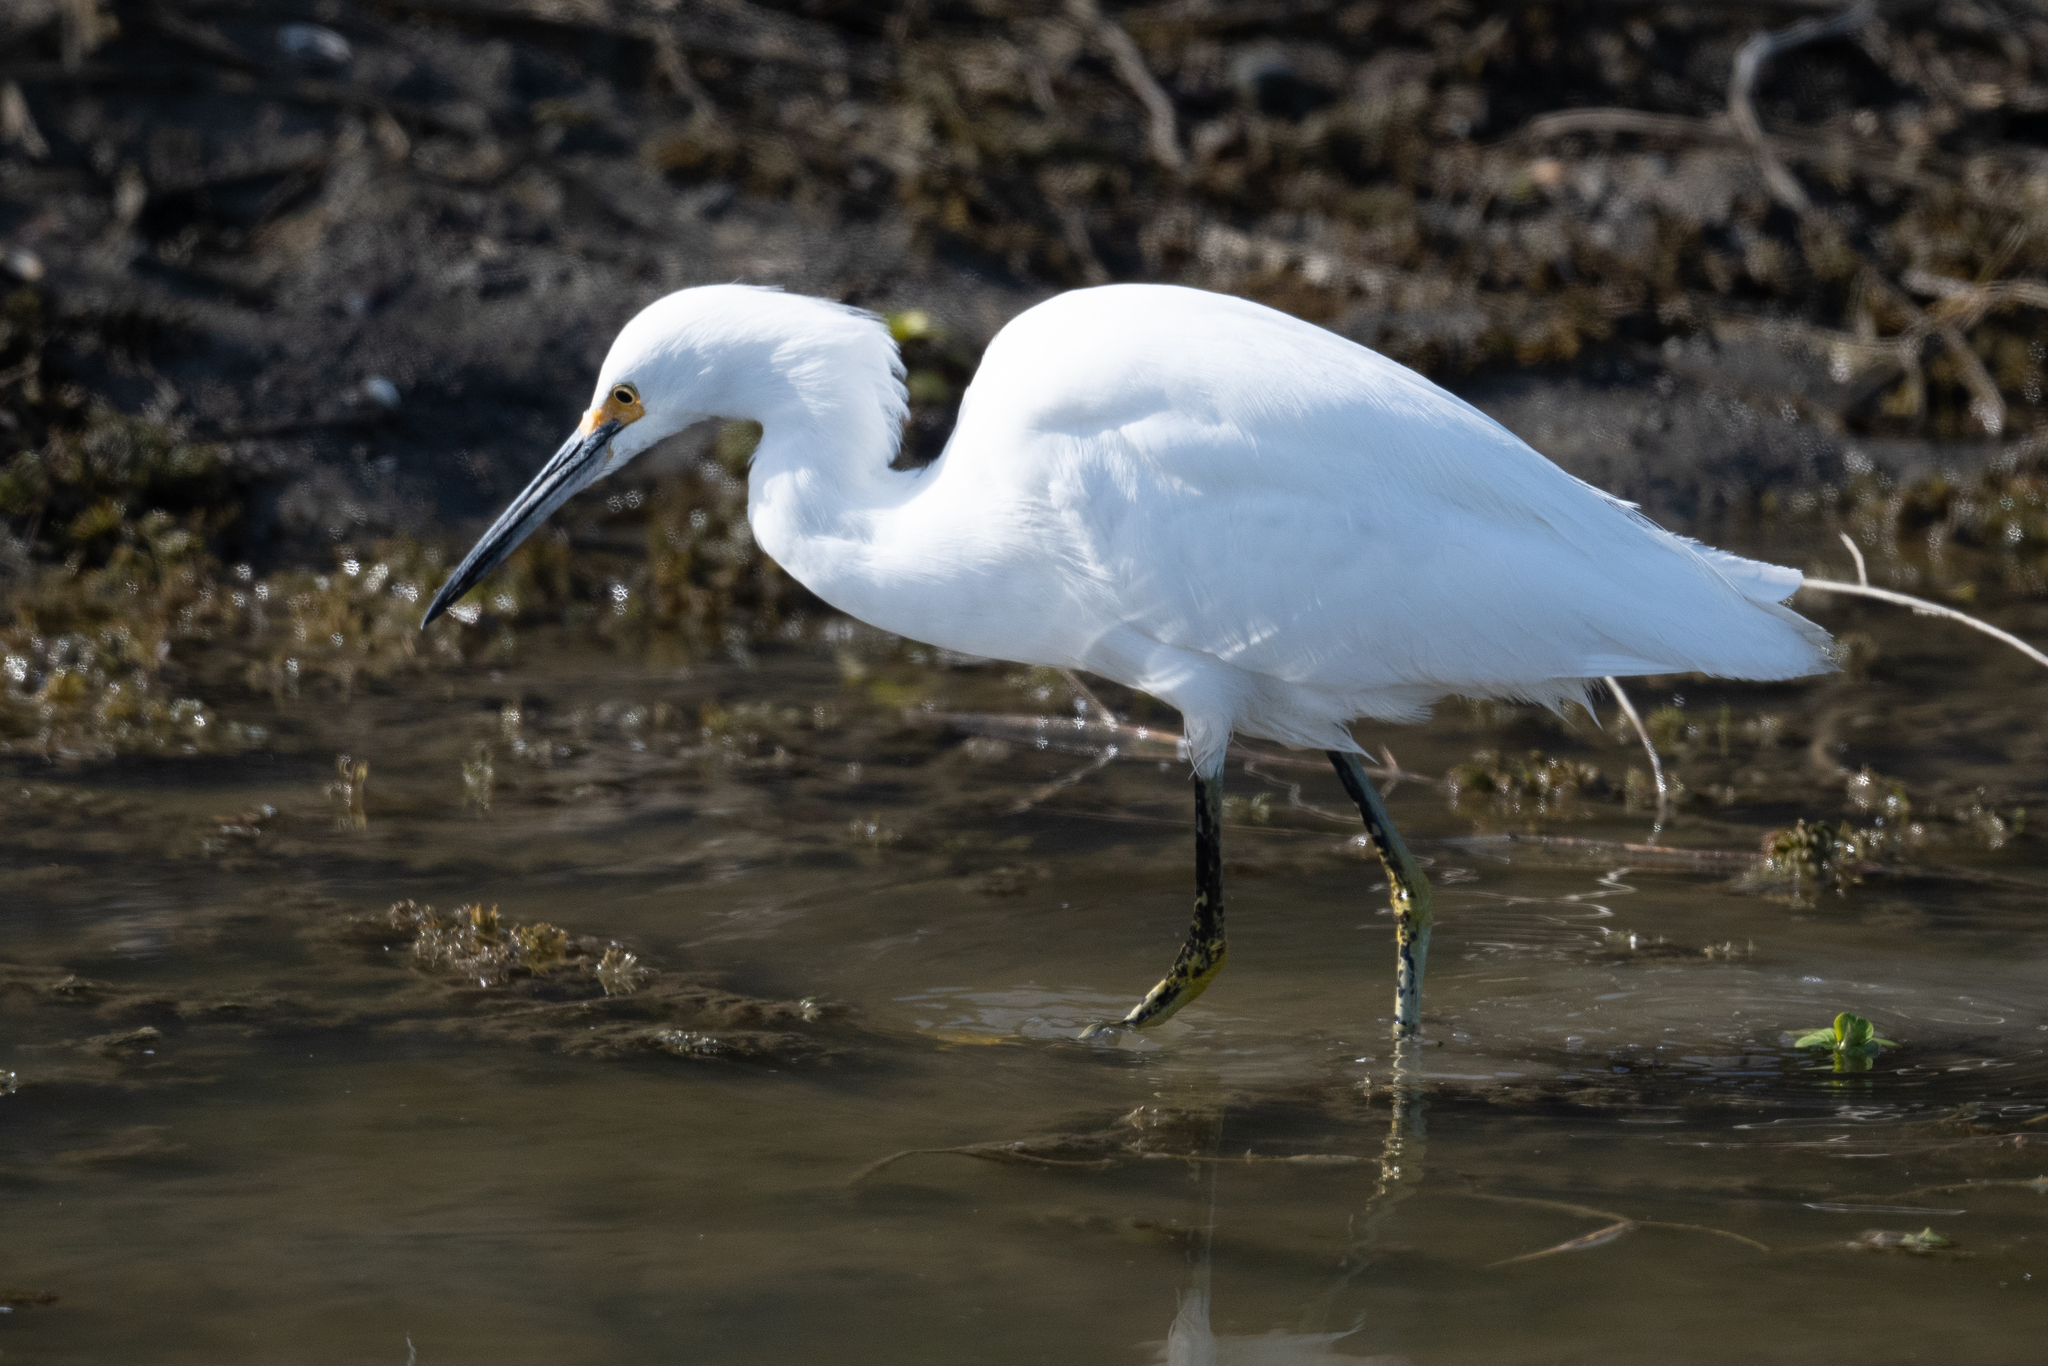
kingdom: Animalia
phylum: Chordata
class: Aves
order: Pelecaniformes
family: Ardeidae
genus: Egretta
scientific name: Egretta thula
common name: Snowy egret
